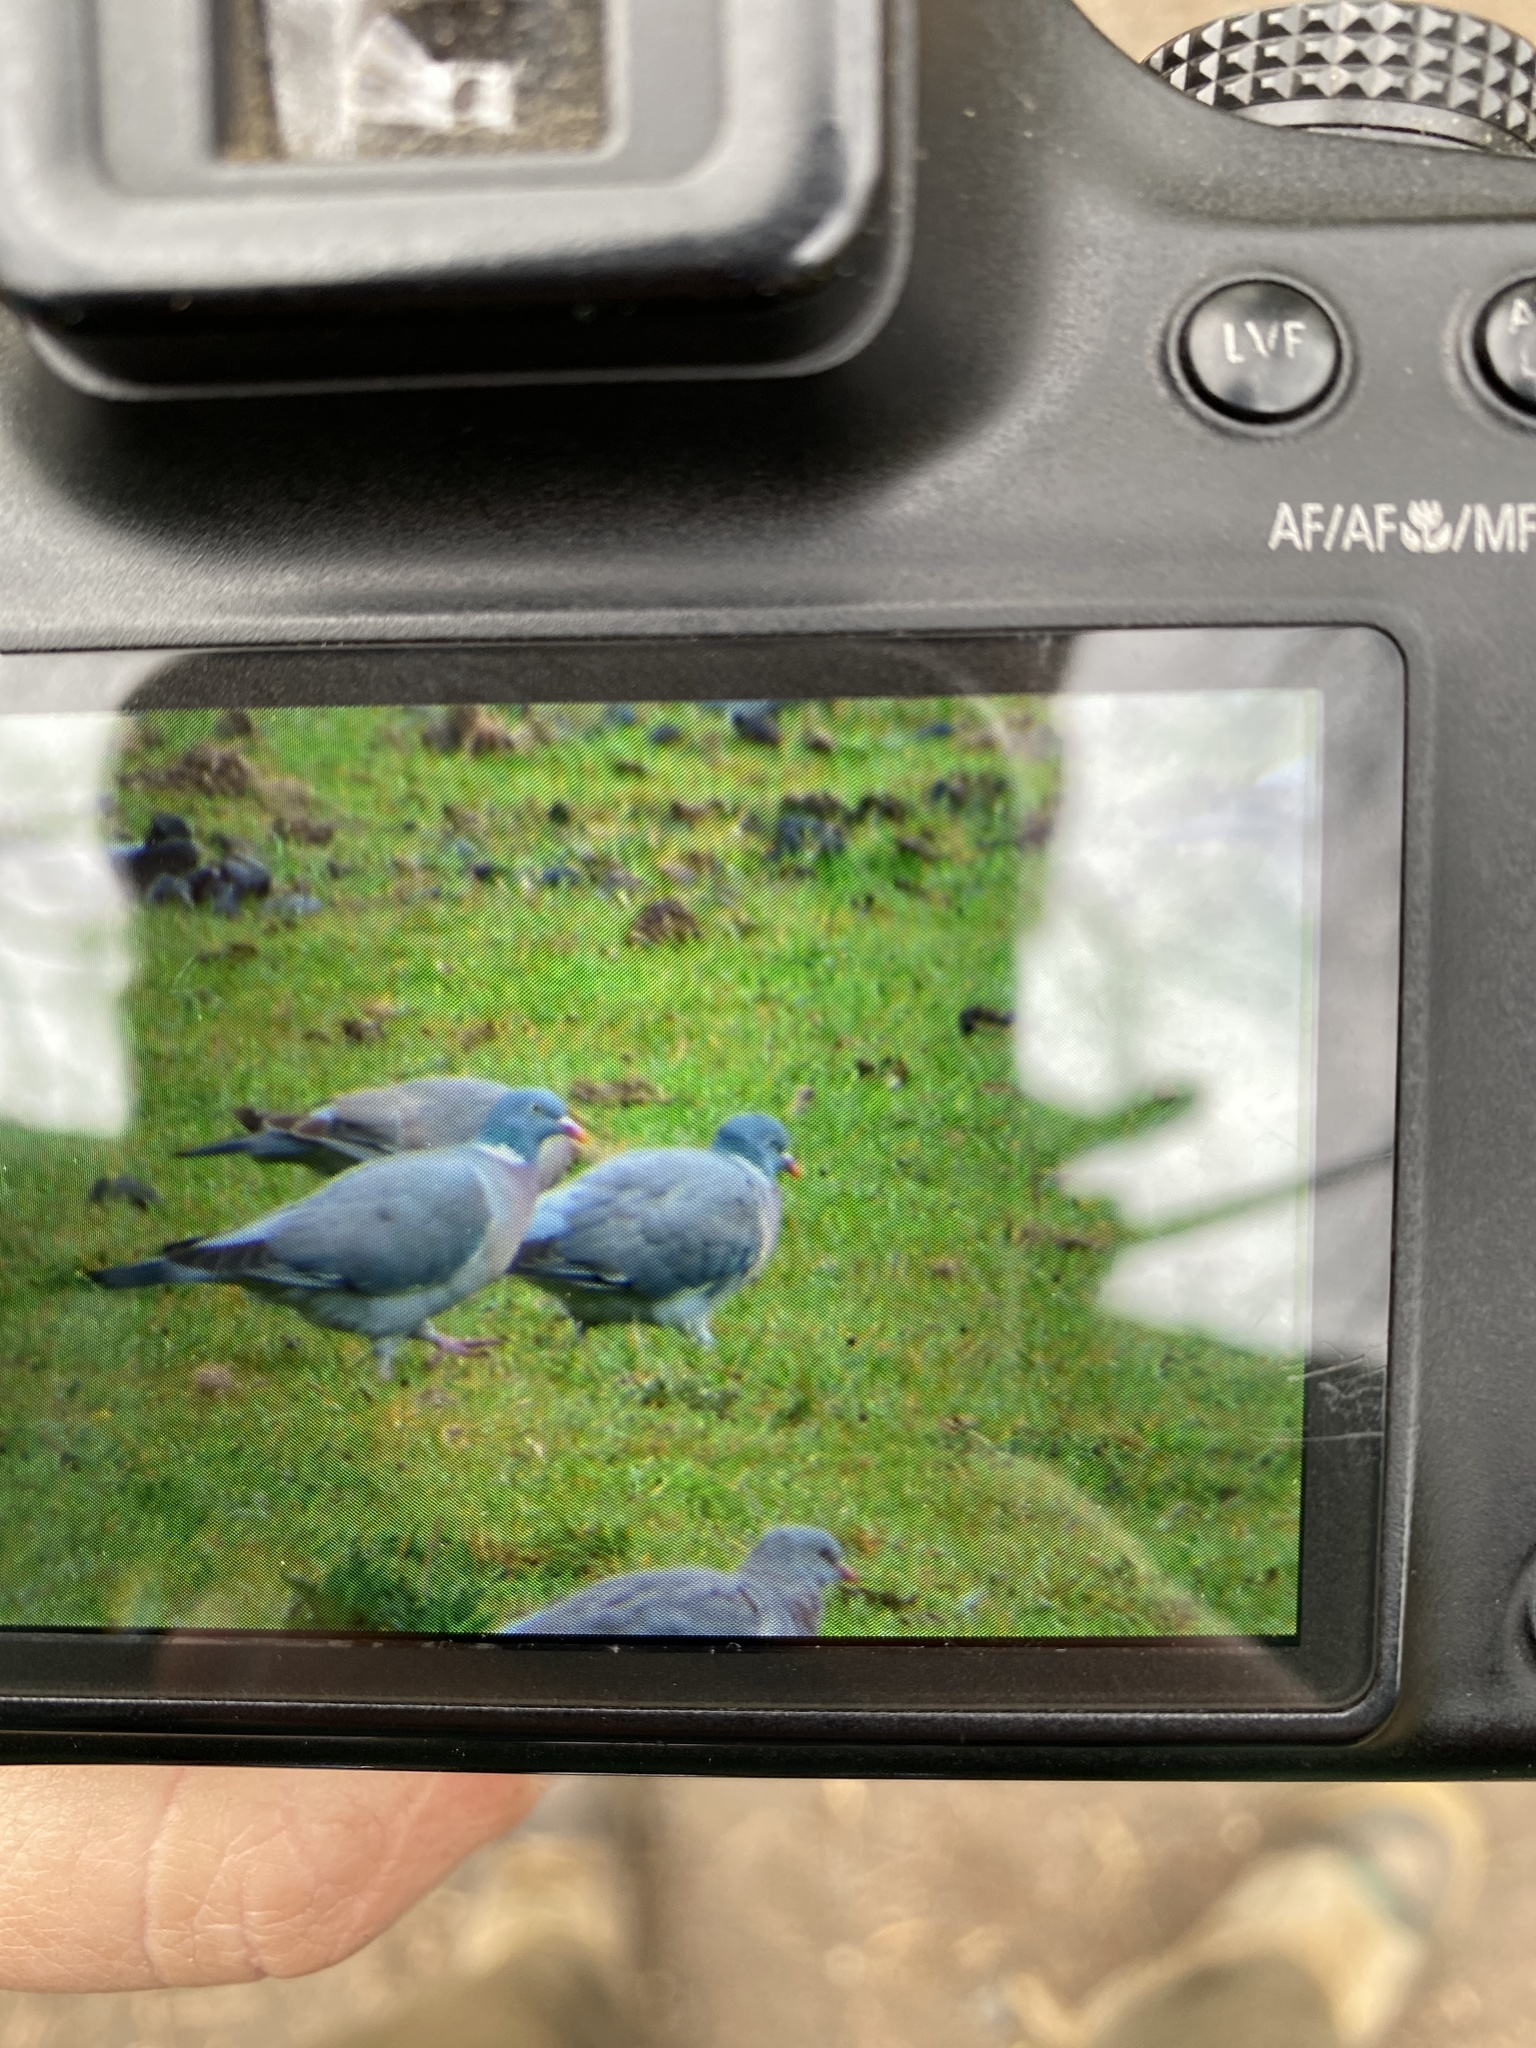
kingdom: Animalia
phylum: Chordata
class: Aves
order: Columbiformes
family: Columbidae
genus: Columba
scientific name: Columba palumbus
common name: Common wood pigeon
